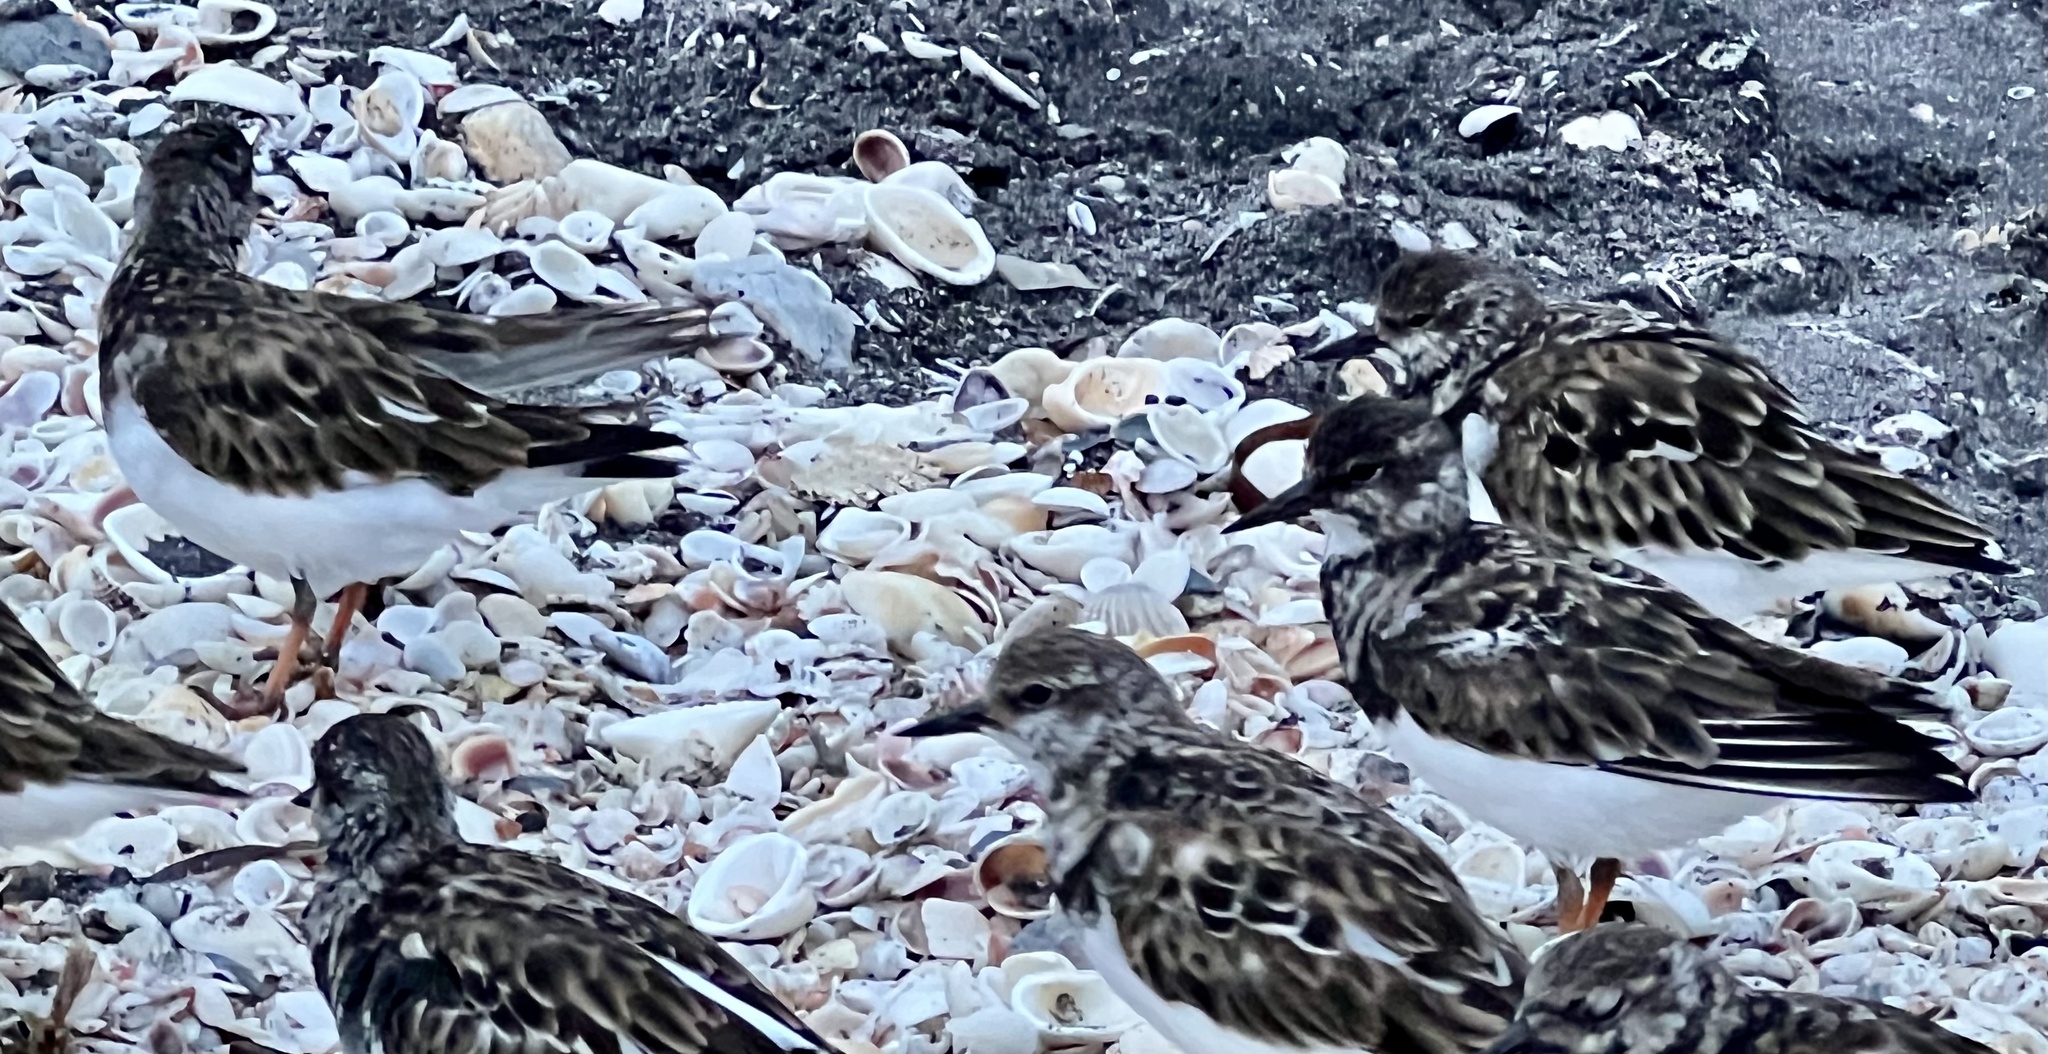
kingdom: Animalia
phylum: Chordata
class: Aves
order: Charadriiformes
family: Scolopacidae
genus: Arenaria
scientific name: Arenaria interpres
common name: Ruddy turnstone
